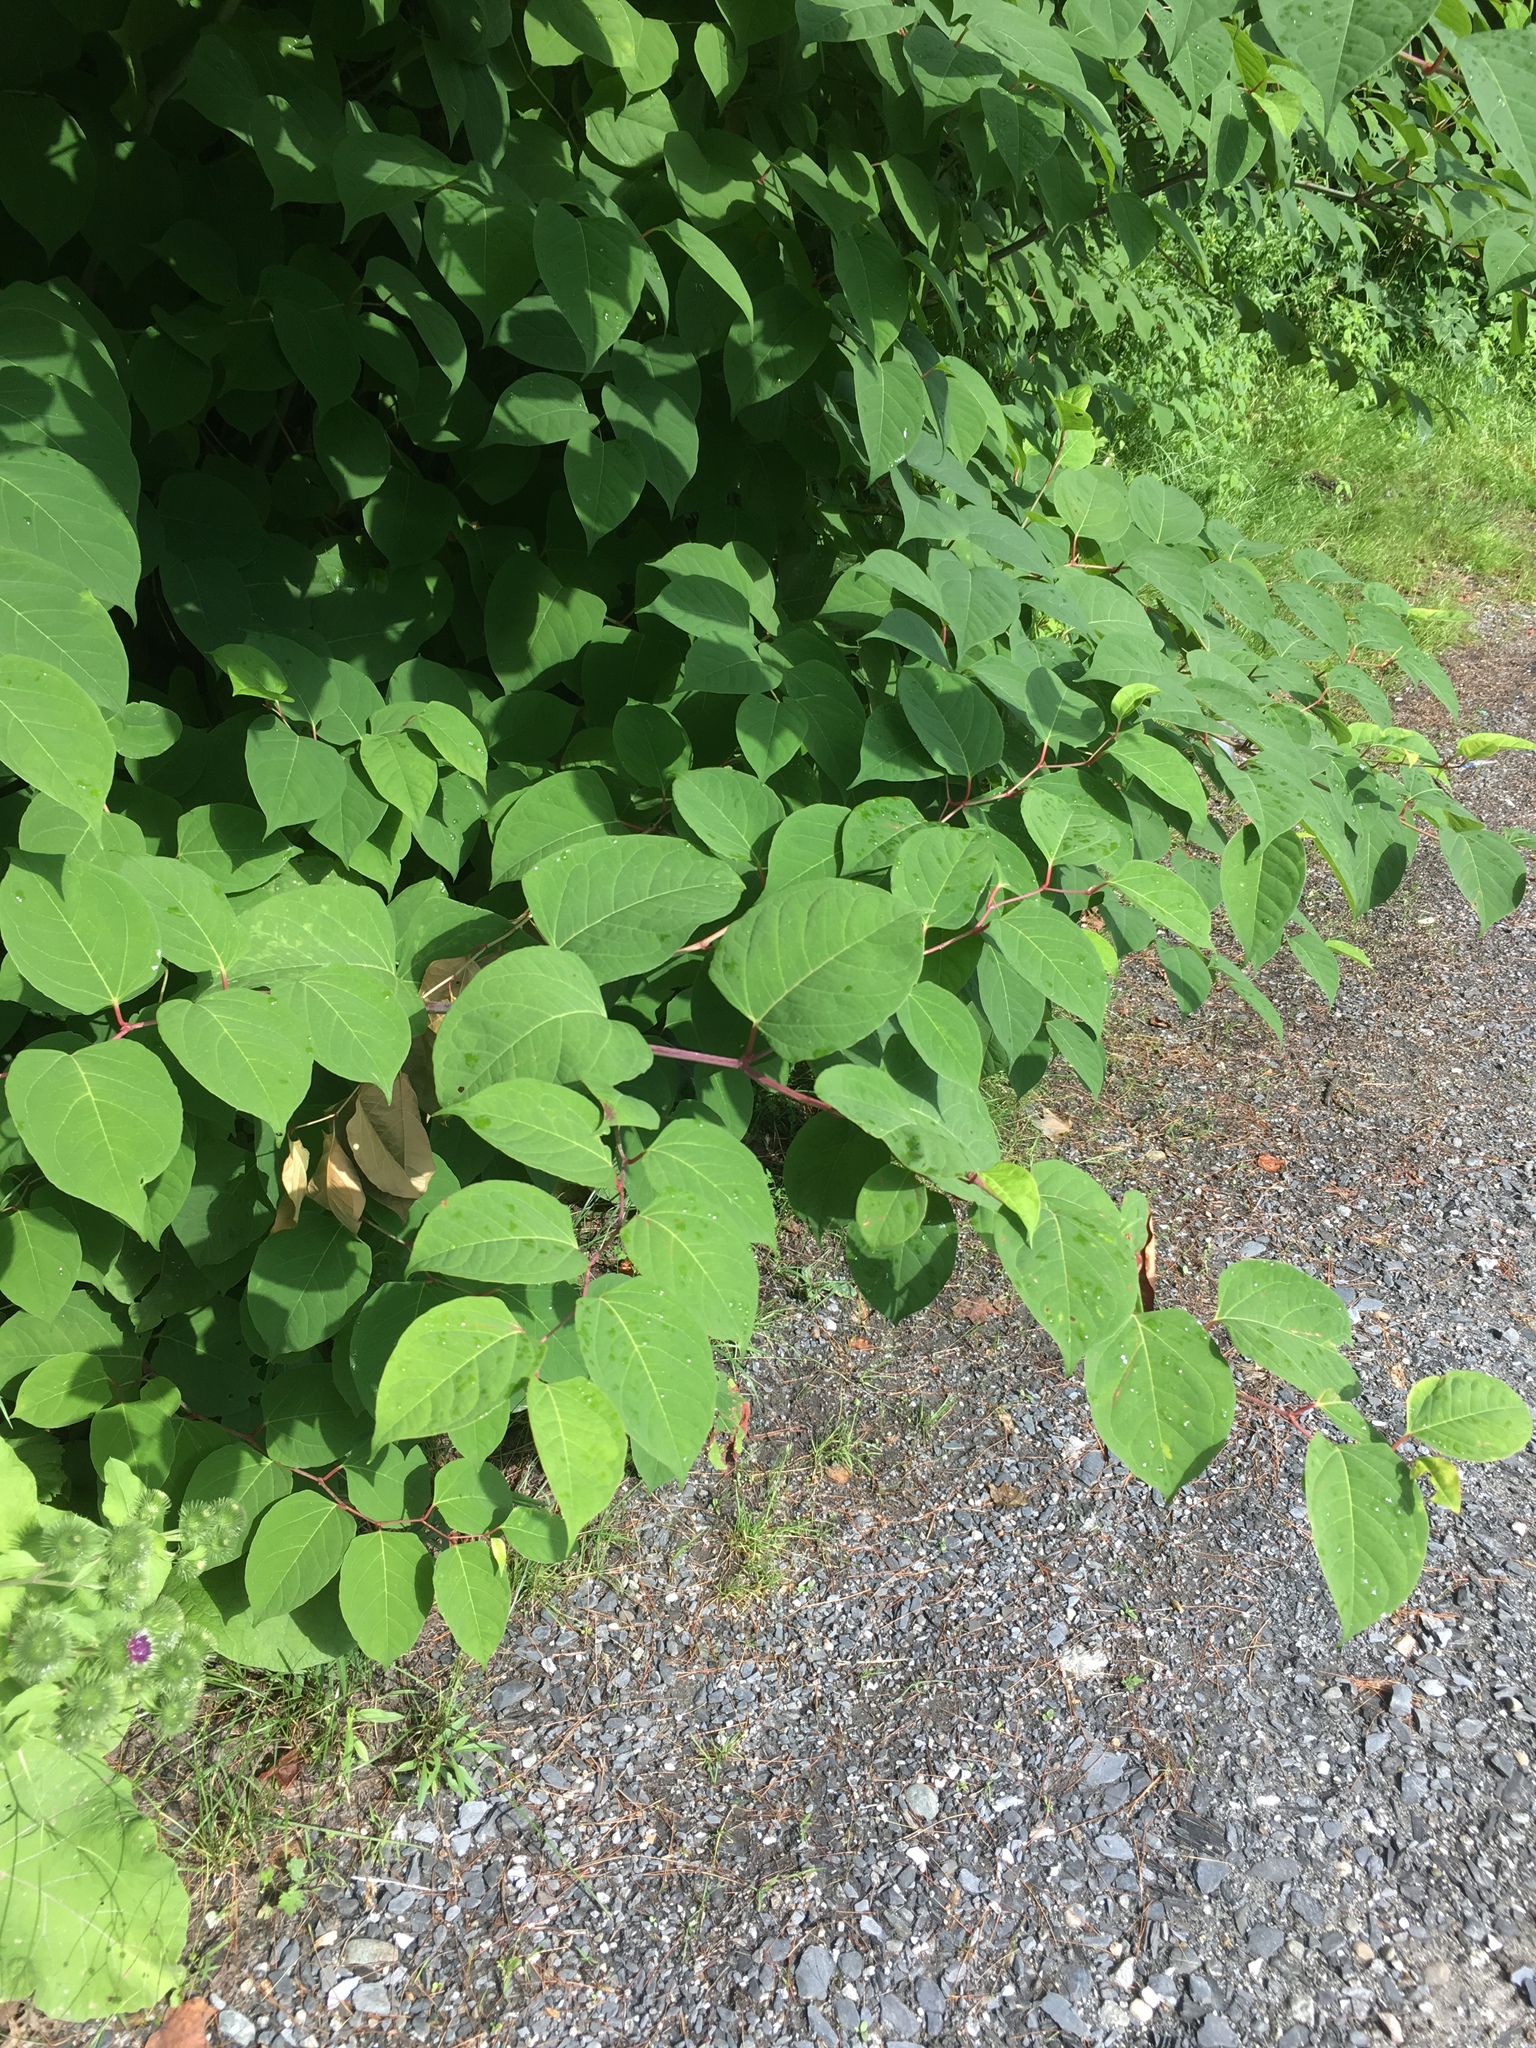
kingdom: Plantae
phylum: Tracheophyta
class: Magnoliopsida
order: Caryophyllales
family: Polygonaceae
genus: Reynoutria
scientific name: Reynoutria japonica
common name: Japanese knotweed
